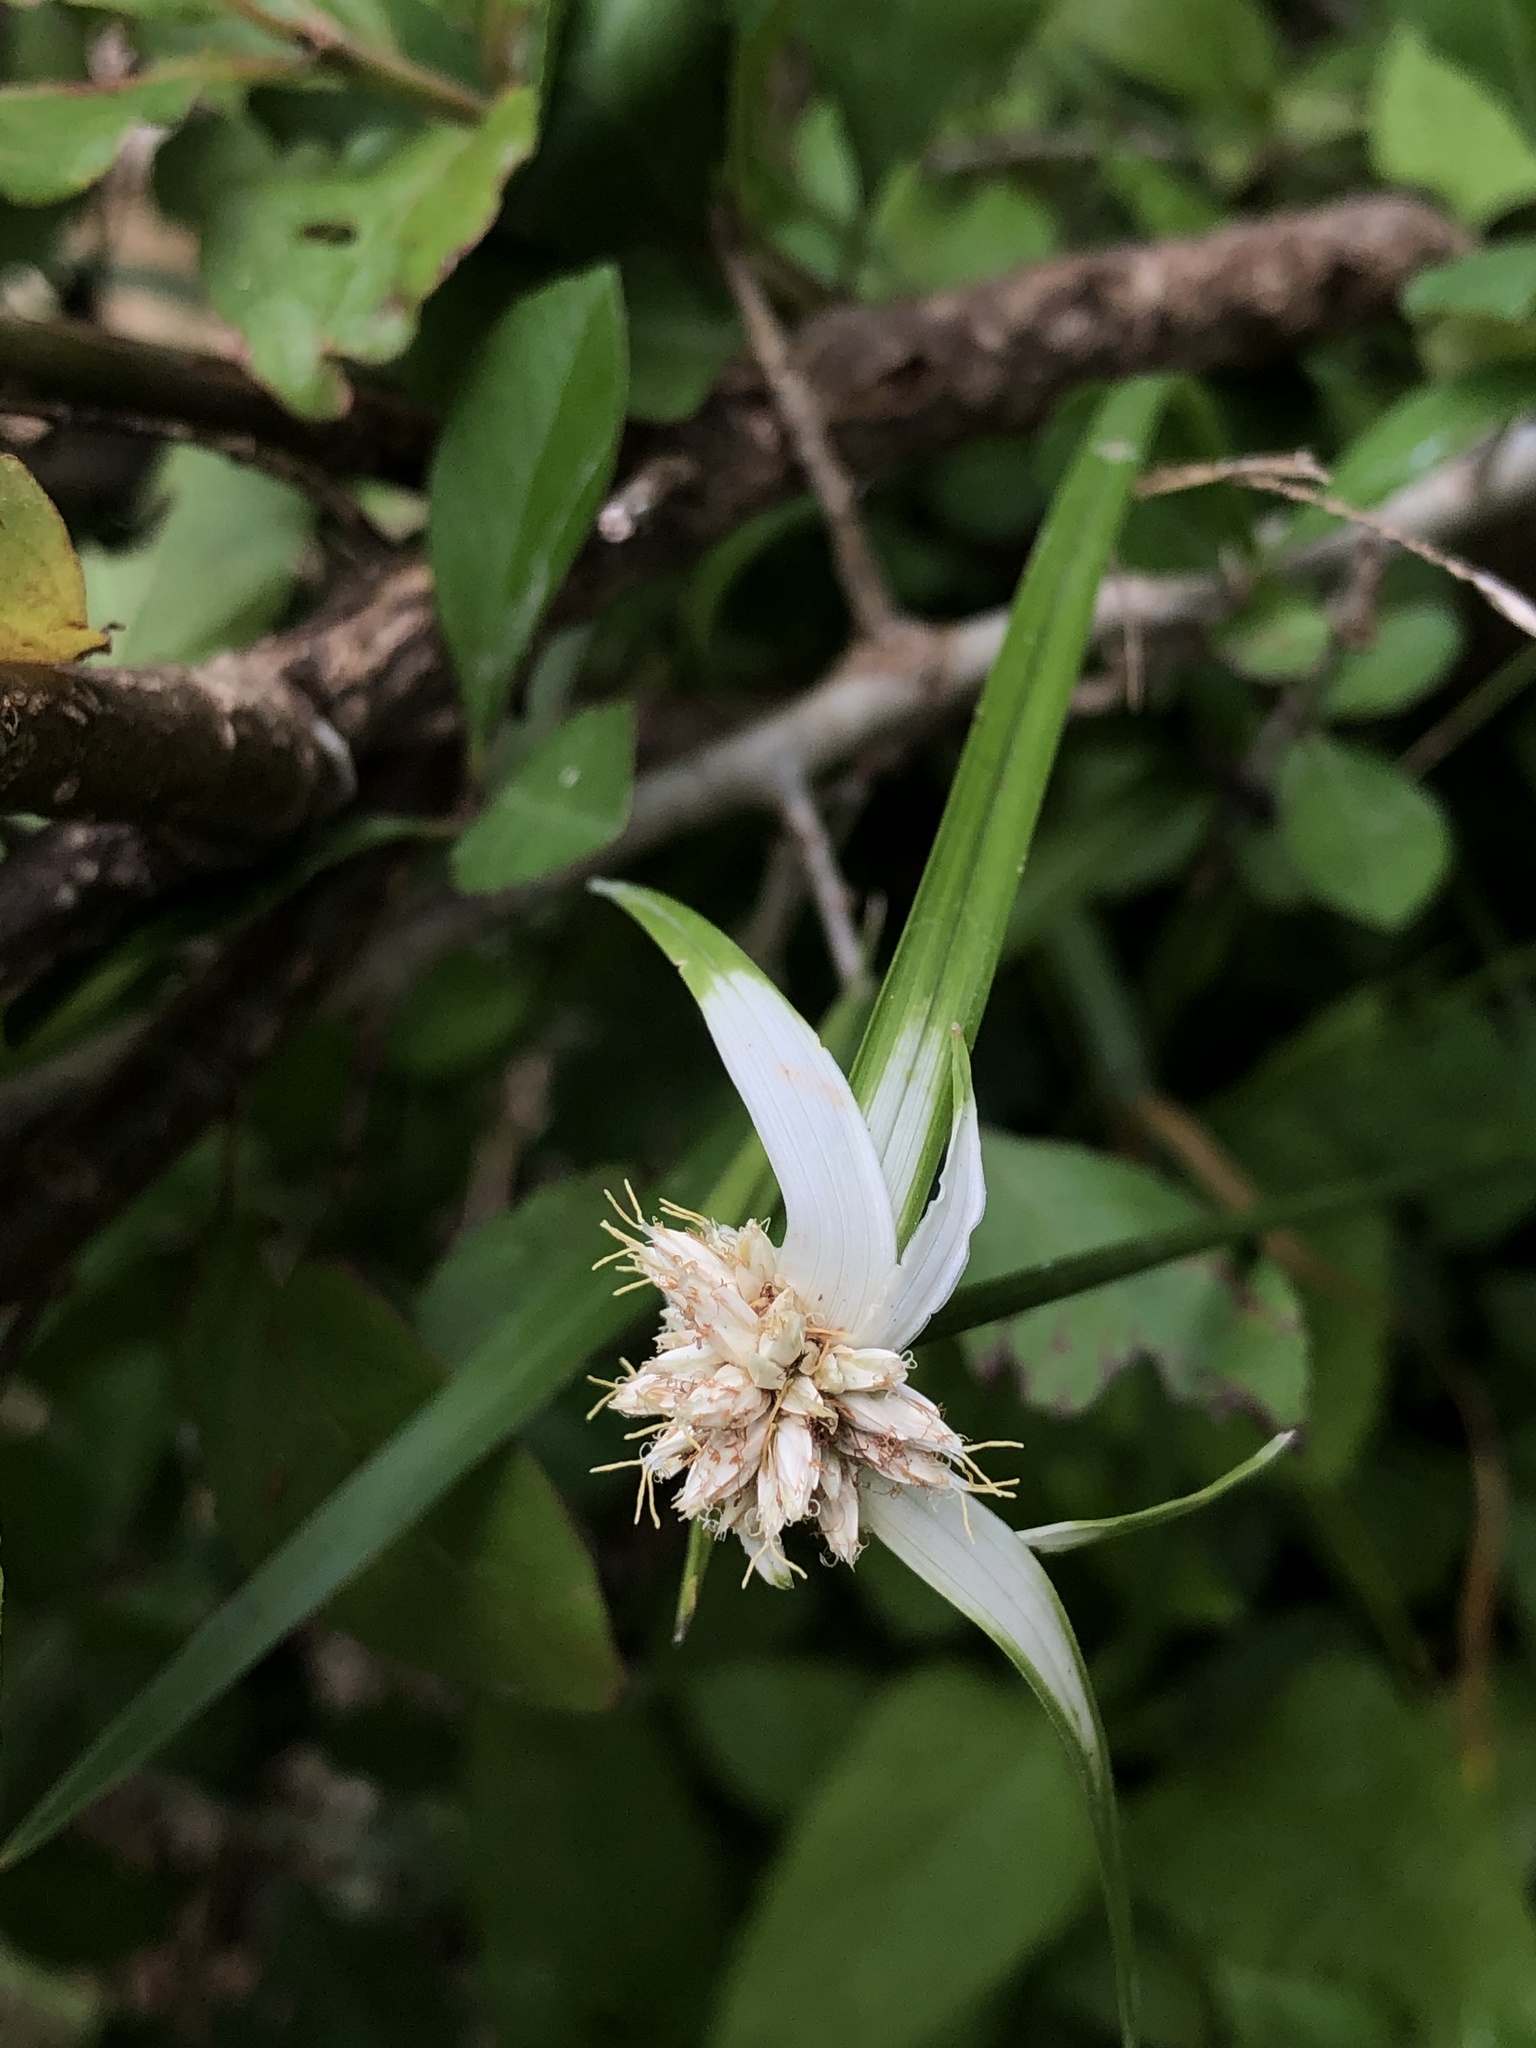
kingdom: Plantae
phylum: Tracheophyta
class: Liliopsida
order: Poales
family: Cyperaceae
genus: Rhynchospora
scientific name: Rhynchospora colorata
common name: Star sedge
